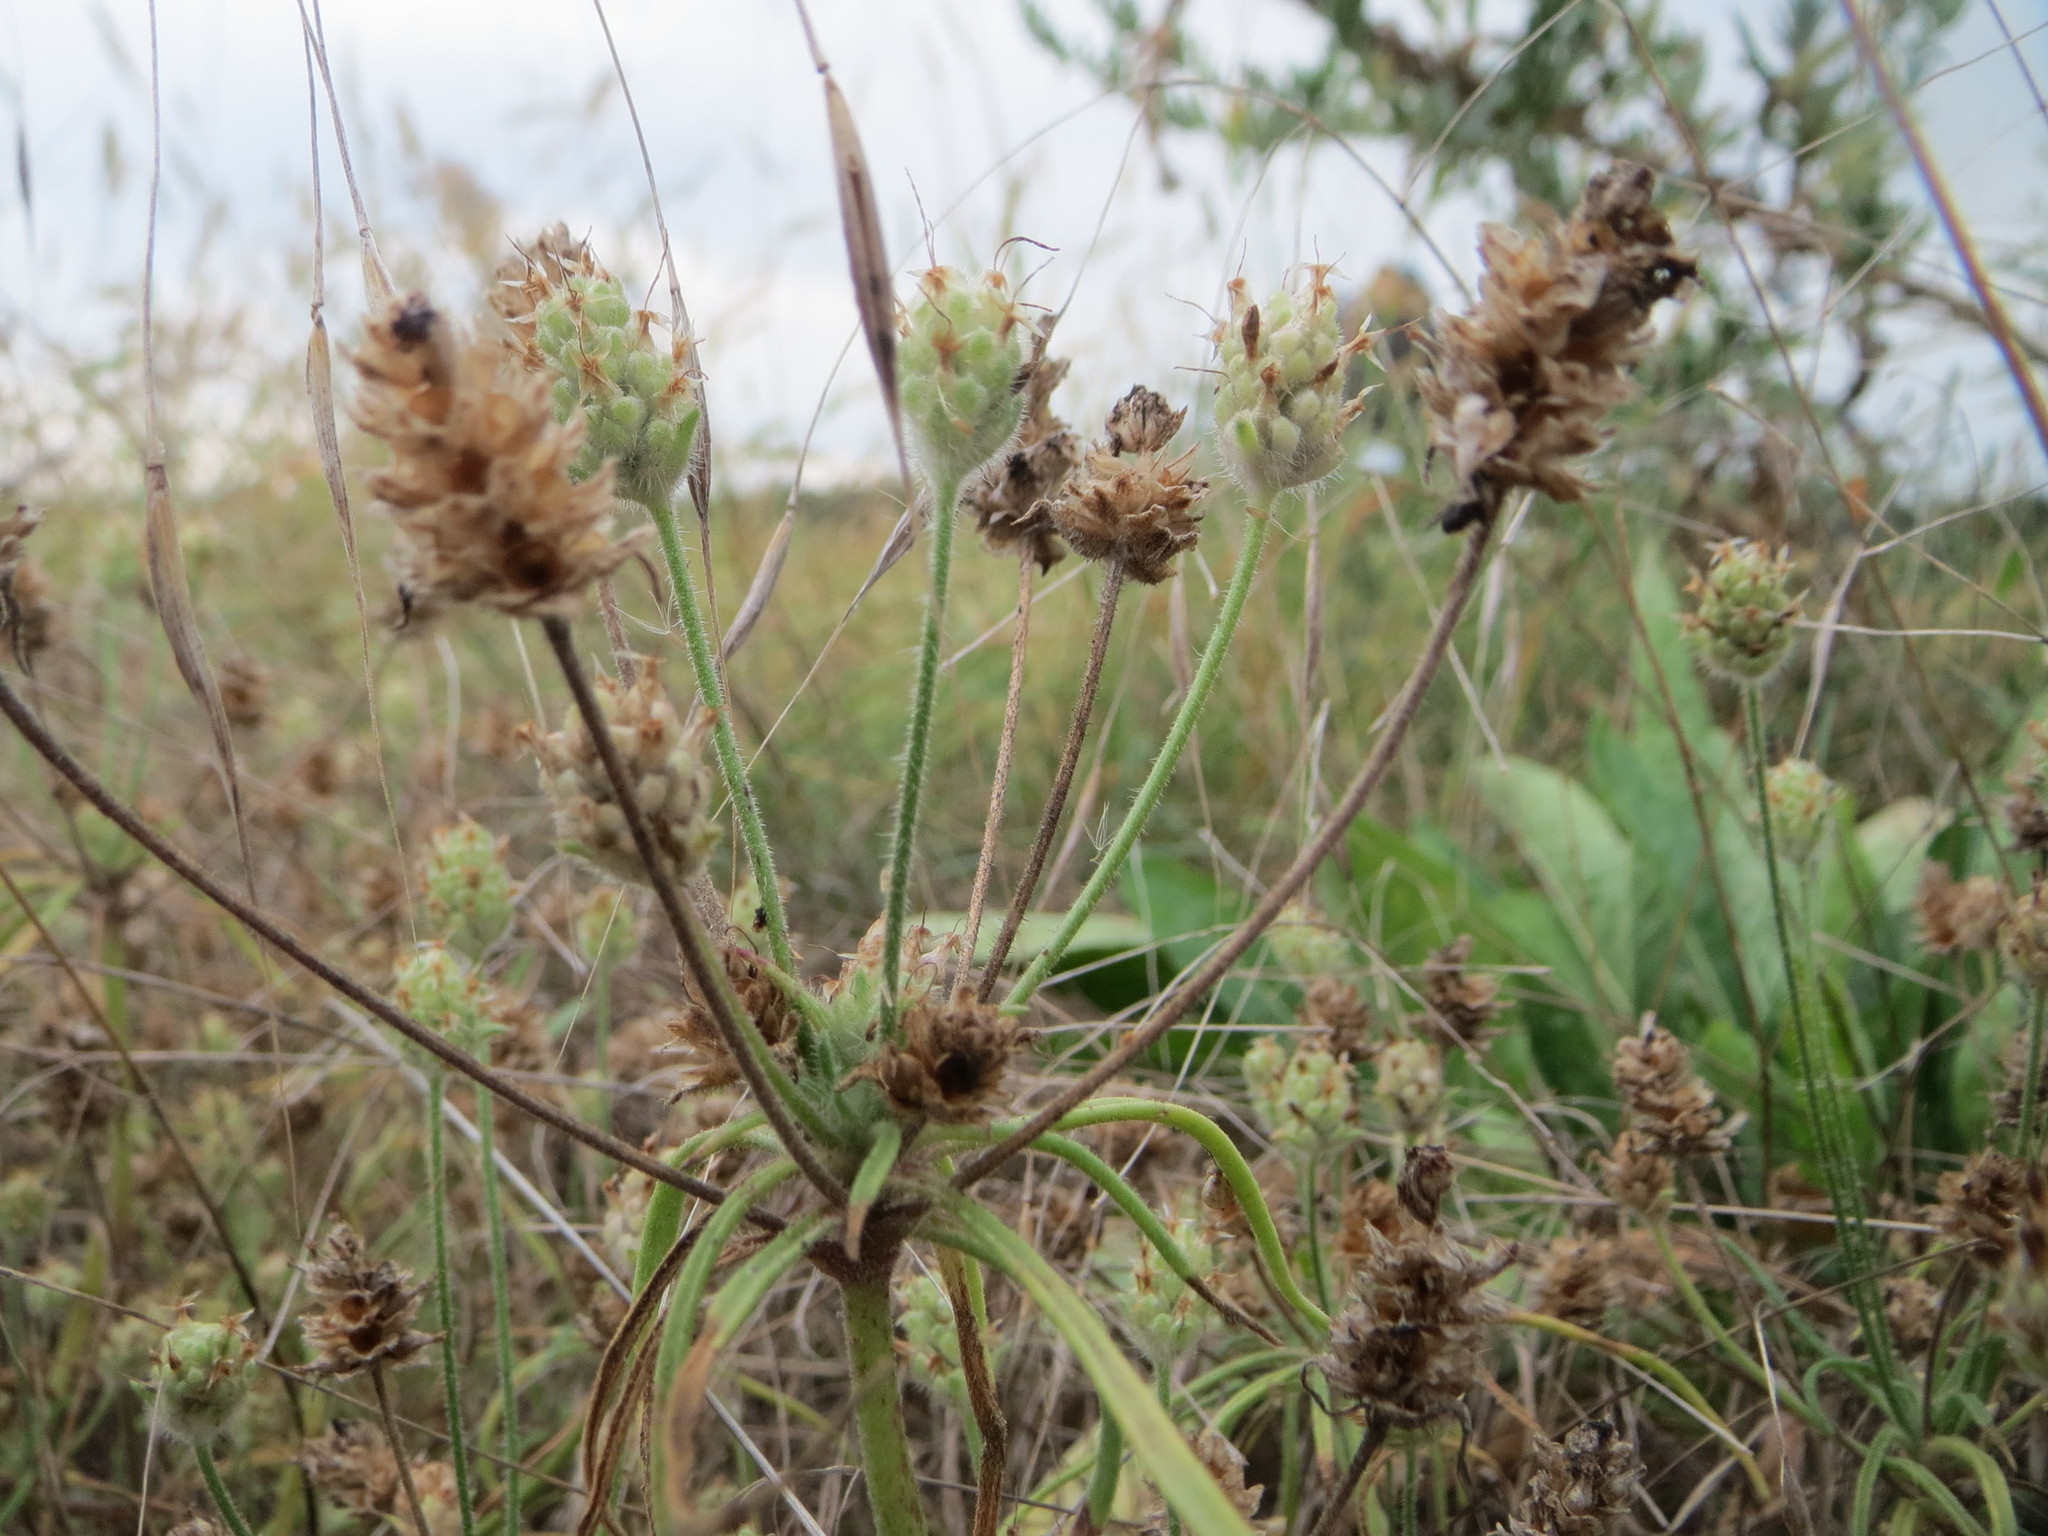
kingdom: Plantae
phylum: Tracheophyta
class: Magnoliopsida
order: Lamiales
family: Plantaginaceae
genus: Plantago
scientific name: Plantago arenaria
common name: Branched plantain
